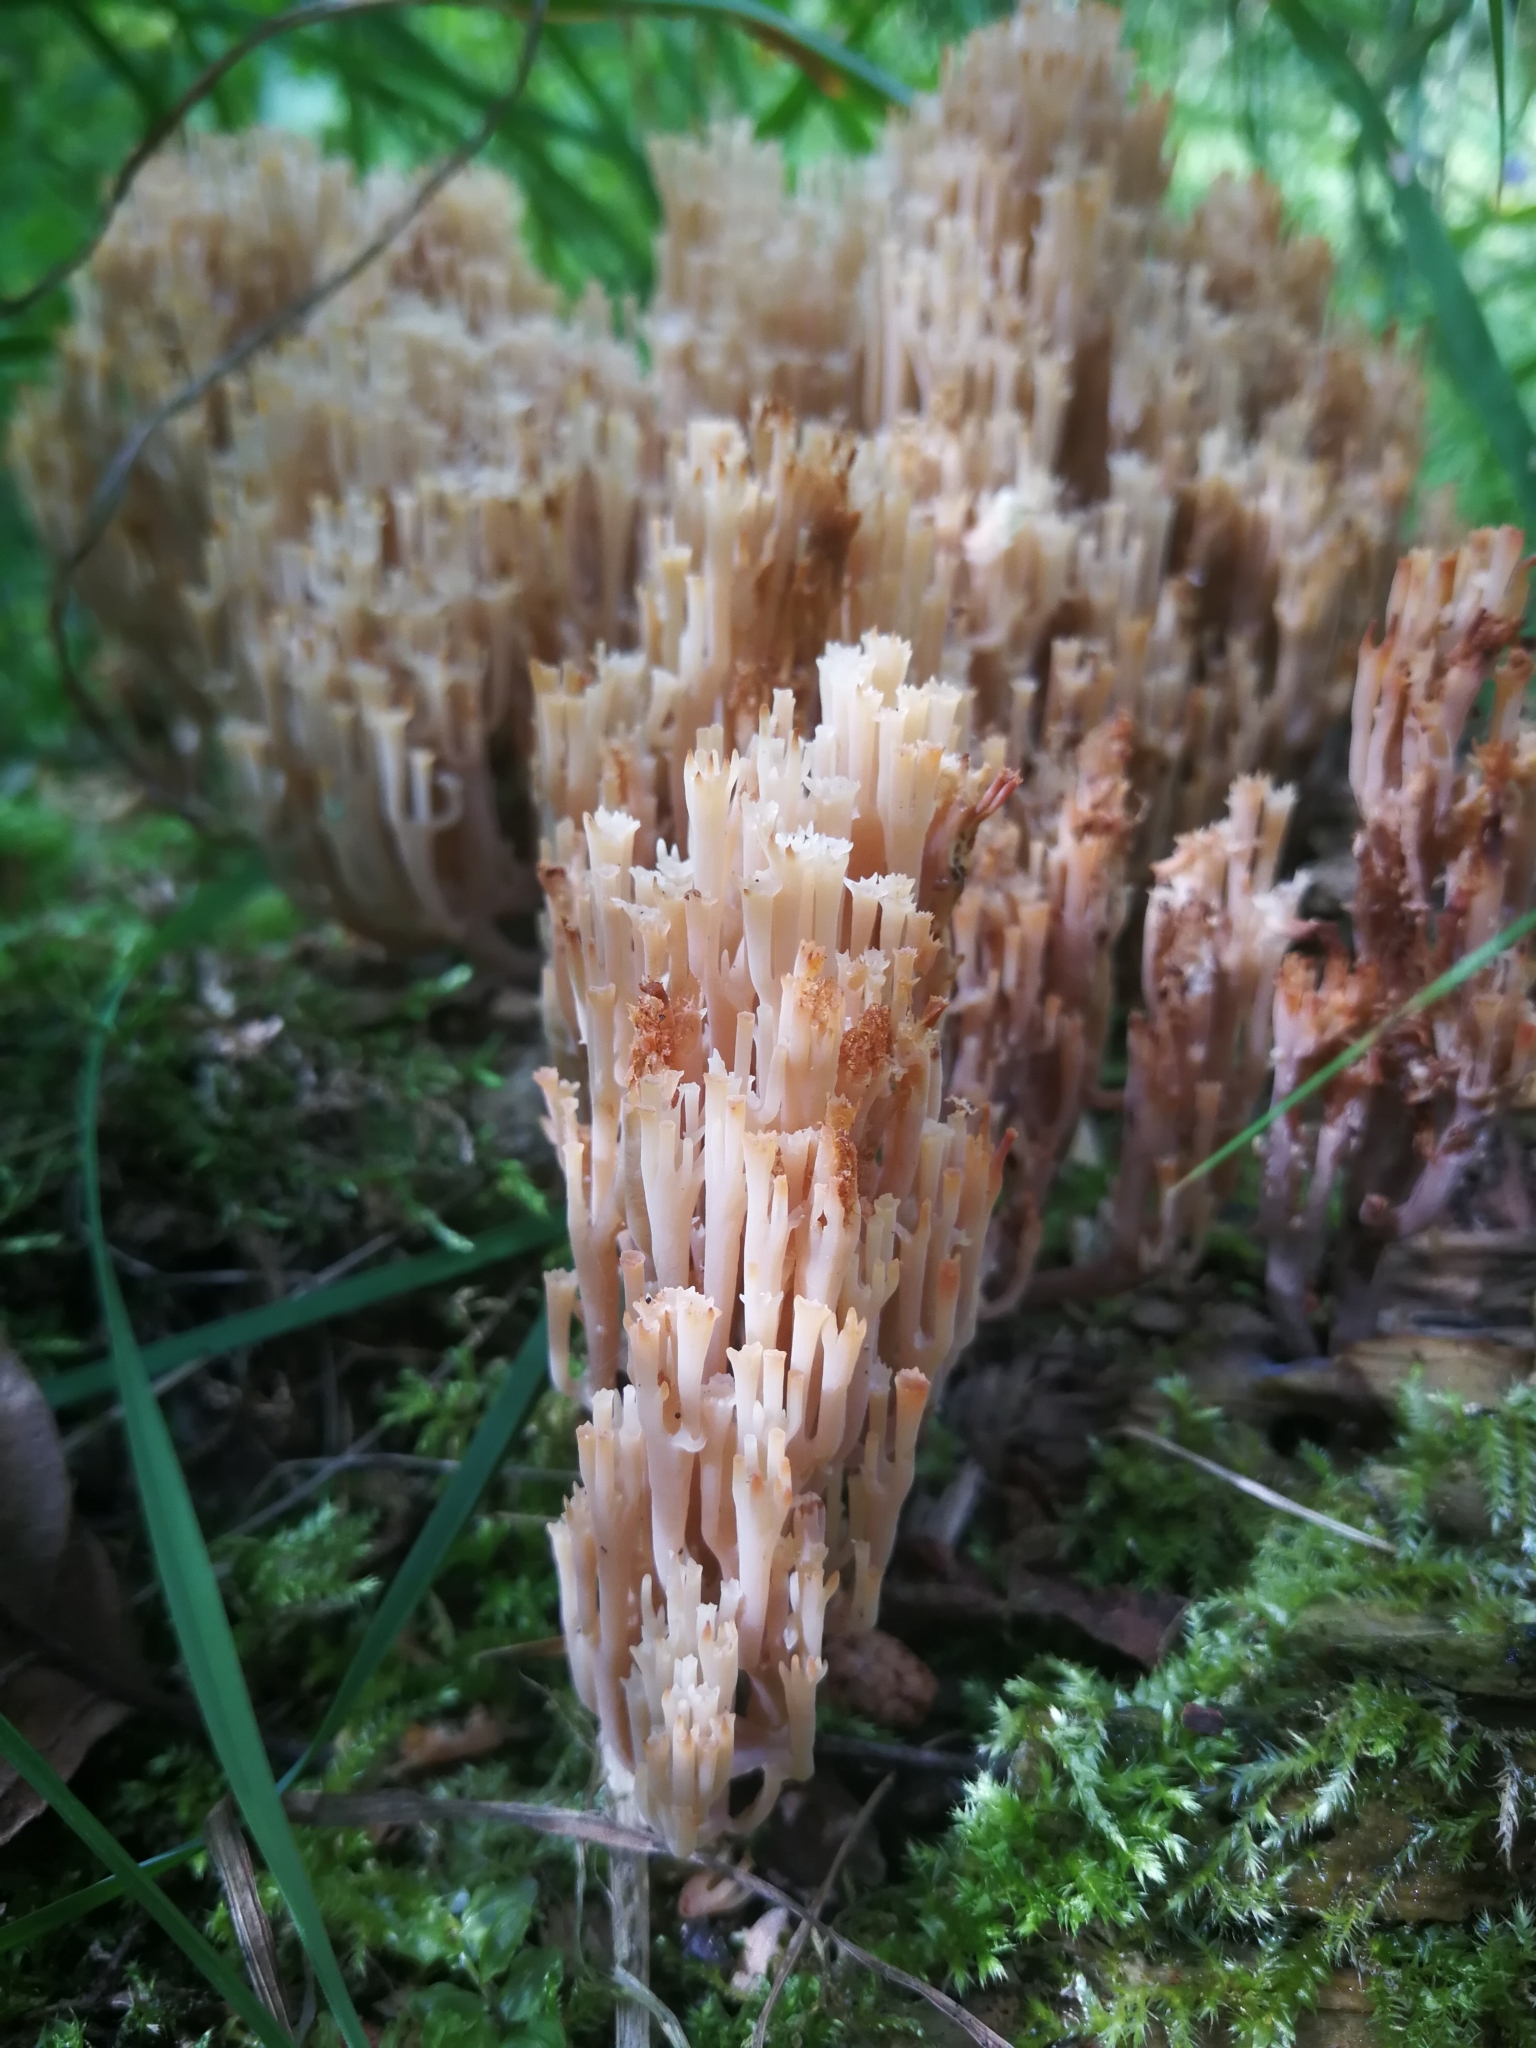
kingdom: Fungi
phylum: Basidiomycota
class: Agaricomycetes
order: Russulales
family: Auriscalpiaceae
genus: Artomyces
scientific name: Artomyces pyxidatus
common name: Crown-tipped coral fungus
